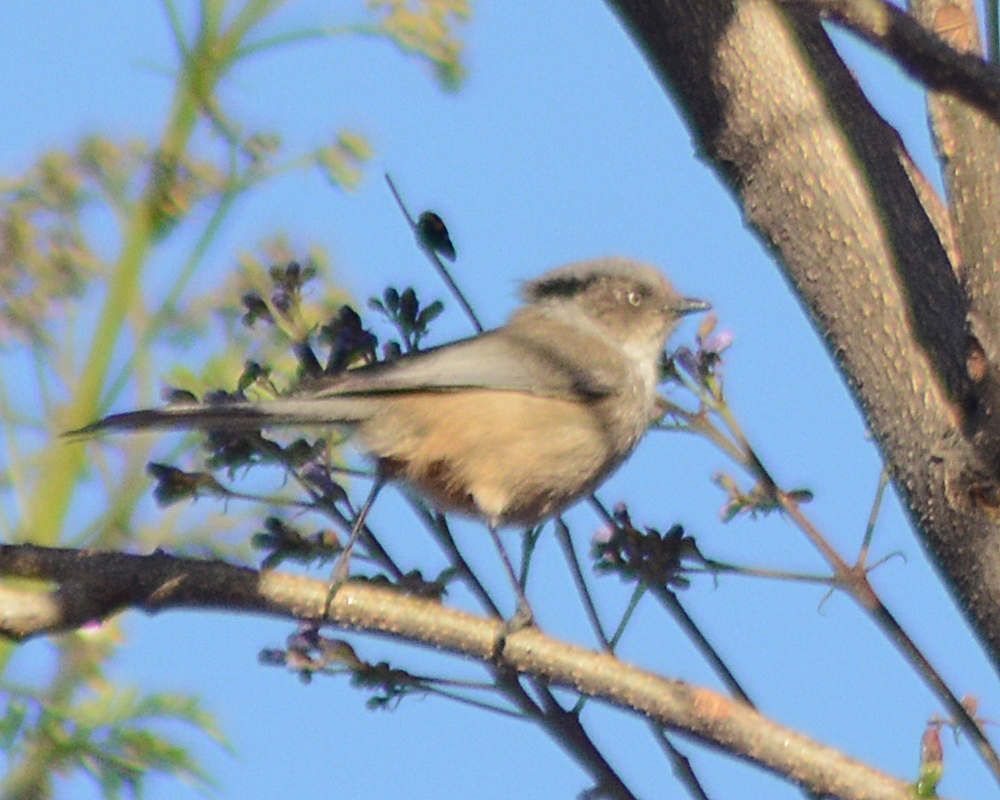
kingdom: Animalia
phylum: Chordata
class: Aves
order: Passeriformes
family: Aegithalidae
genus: Psaltriparus
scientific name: Psaltriparus minimus
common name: American bushtit
